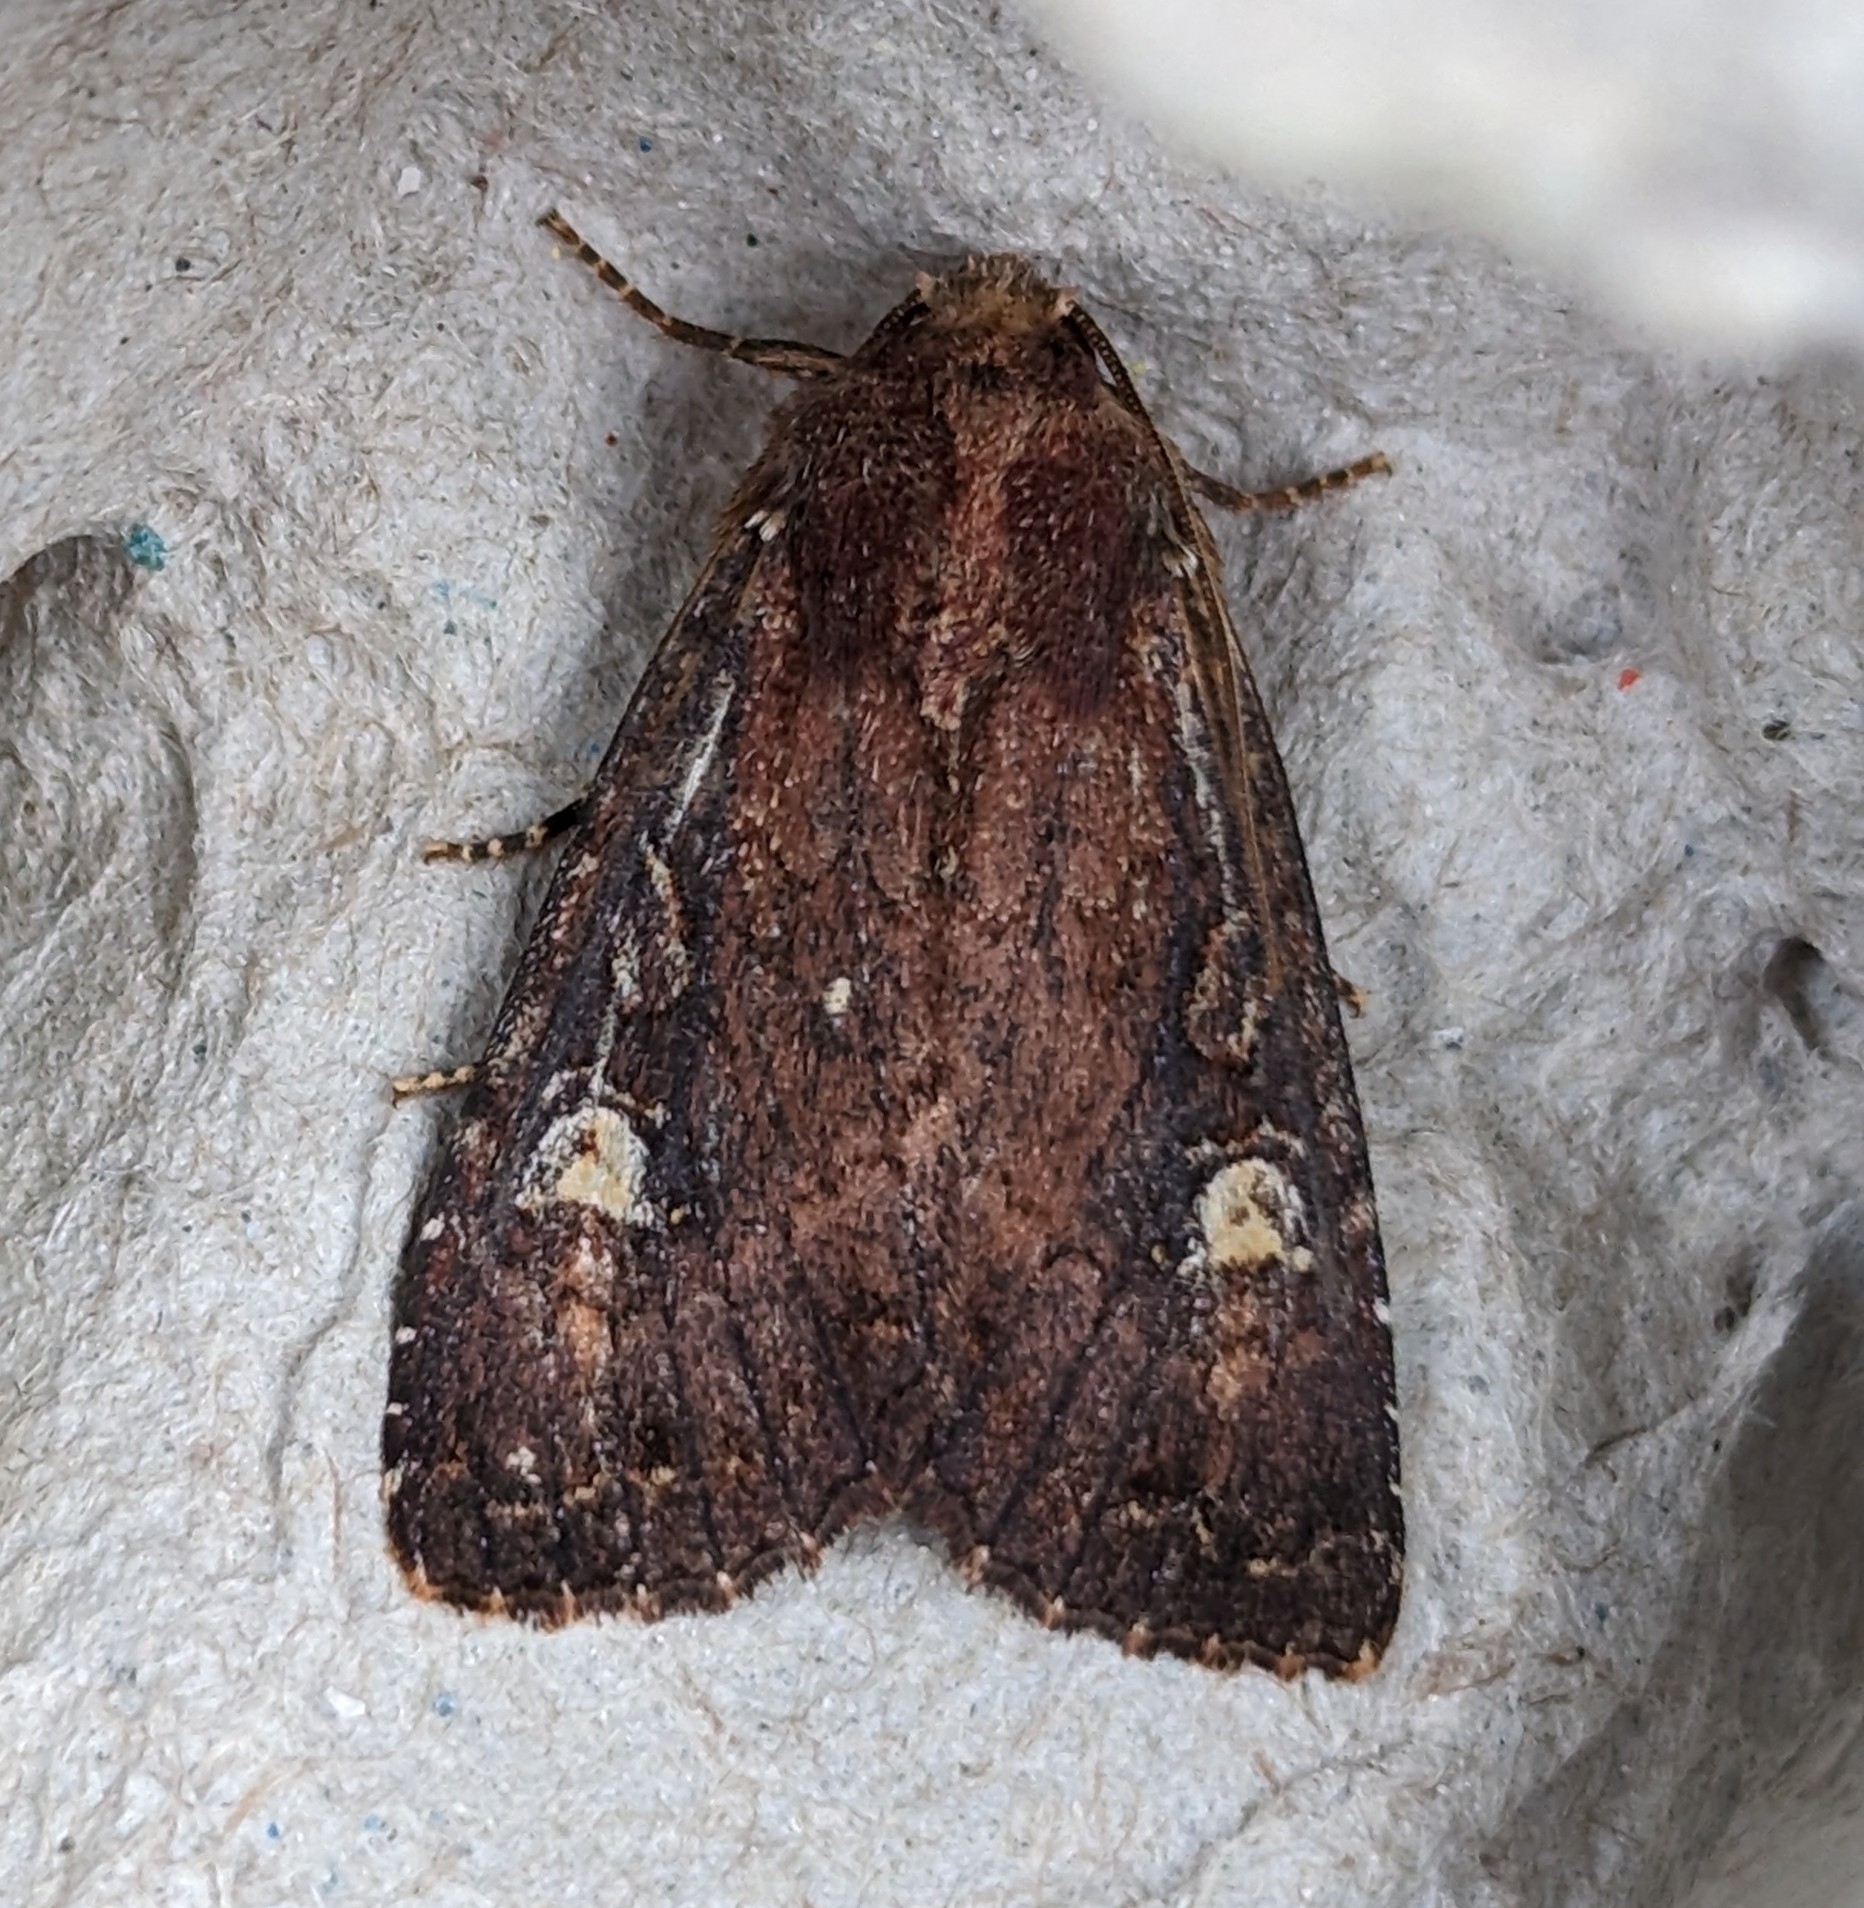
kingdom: Animalia
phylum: Arthropoda
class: Insecta
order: Lepidoptera
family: Noctuidae
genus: Apamea
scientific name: Apamea cogitata
